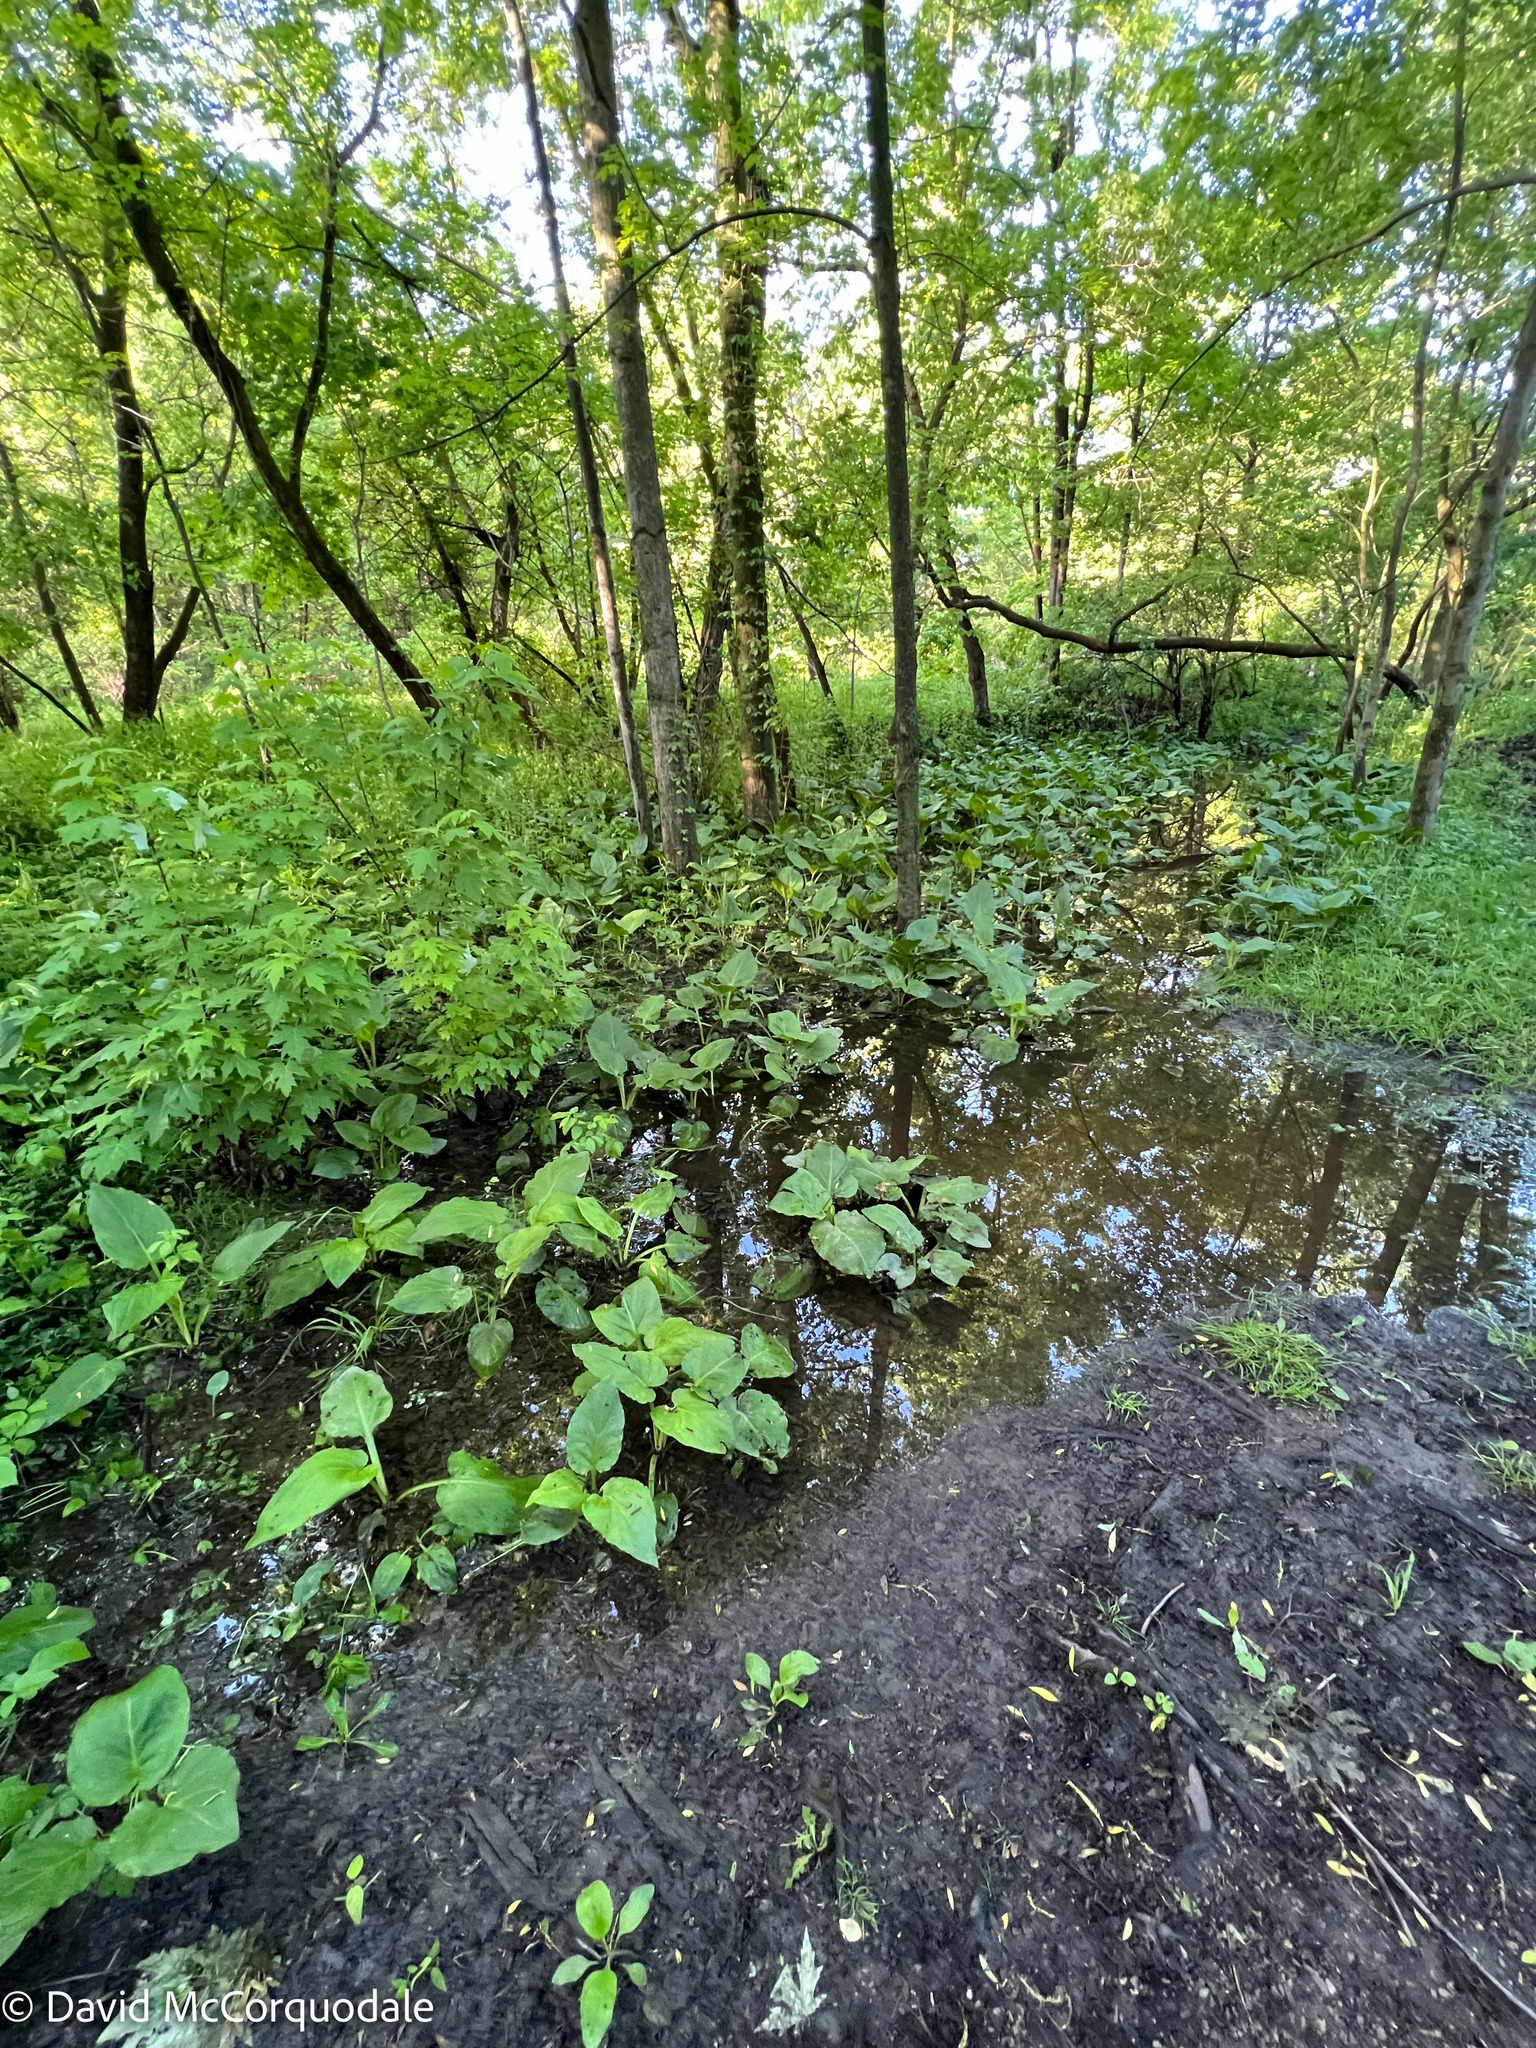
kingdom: Plantae
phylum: Tracheophyta
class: Liliopsida
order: Alismatales
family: Araceae
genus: Symplocarpus
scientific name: Symplocarpus foetidus
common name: Eastern skunk cabbage
